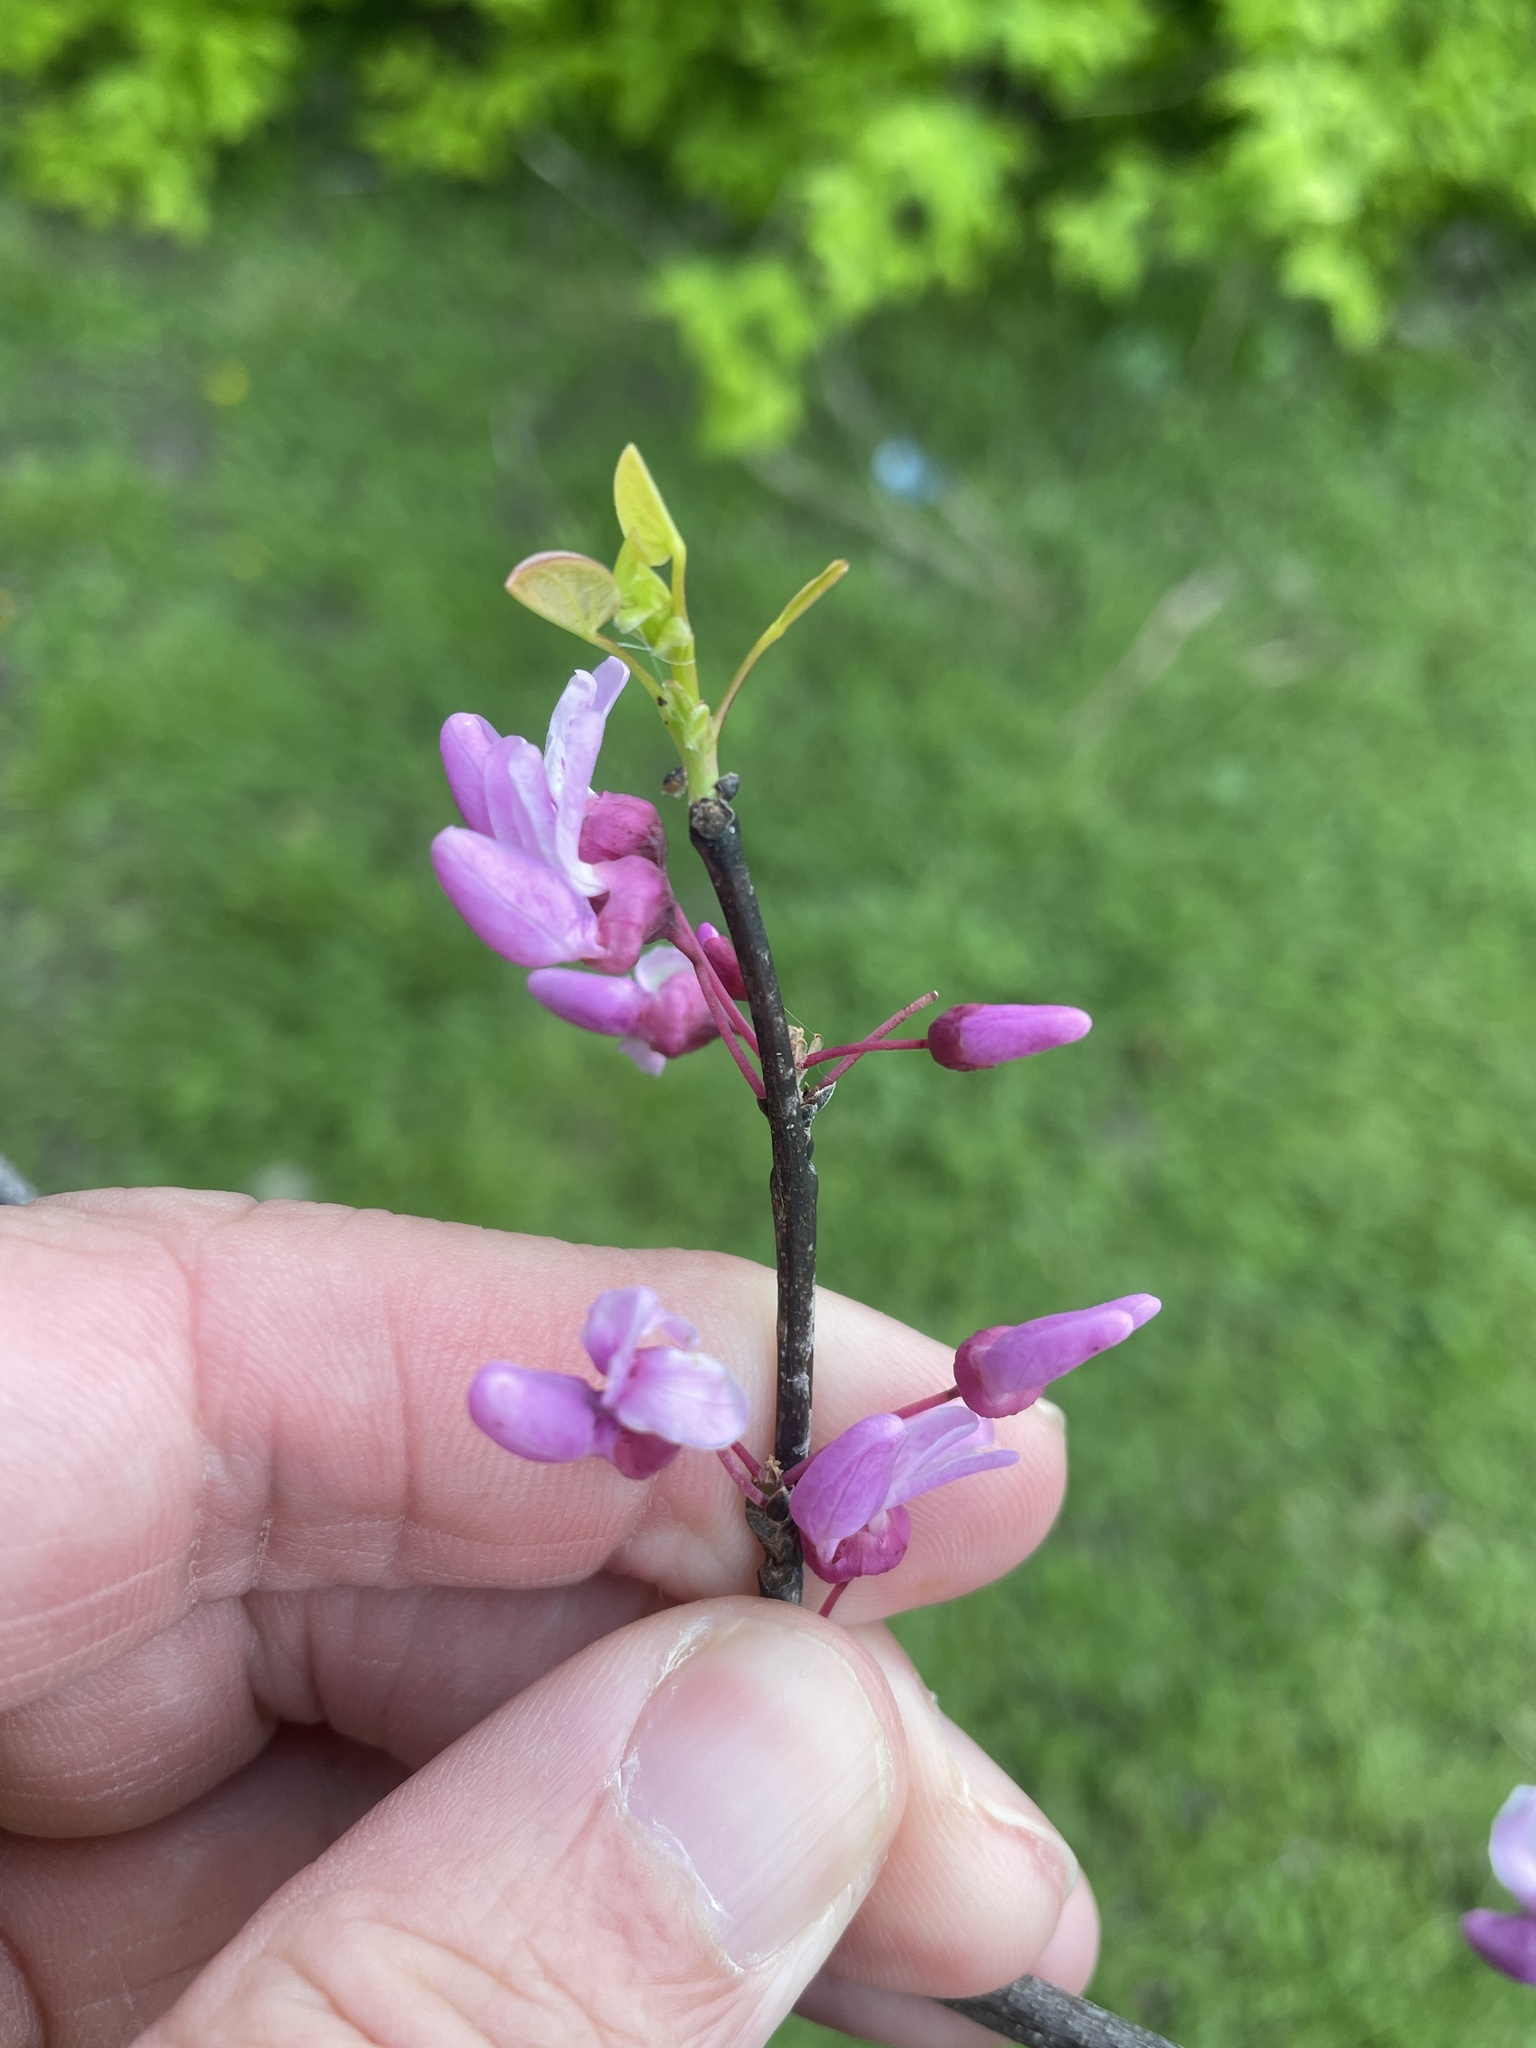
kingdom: Plantae
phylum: Tracheophyta
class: Magnoliopsida
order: Fabales
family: Fabaceae
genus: Cercis
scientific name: Cercis canadensis
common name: Eastern redbud
